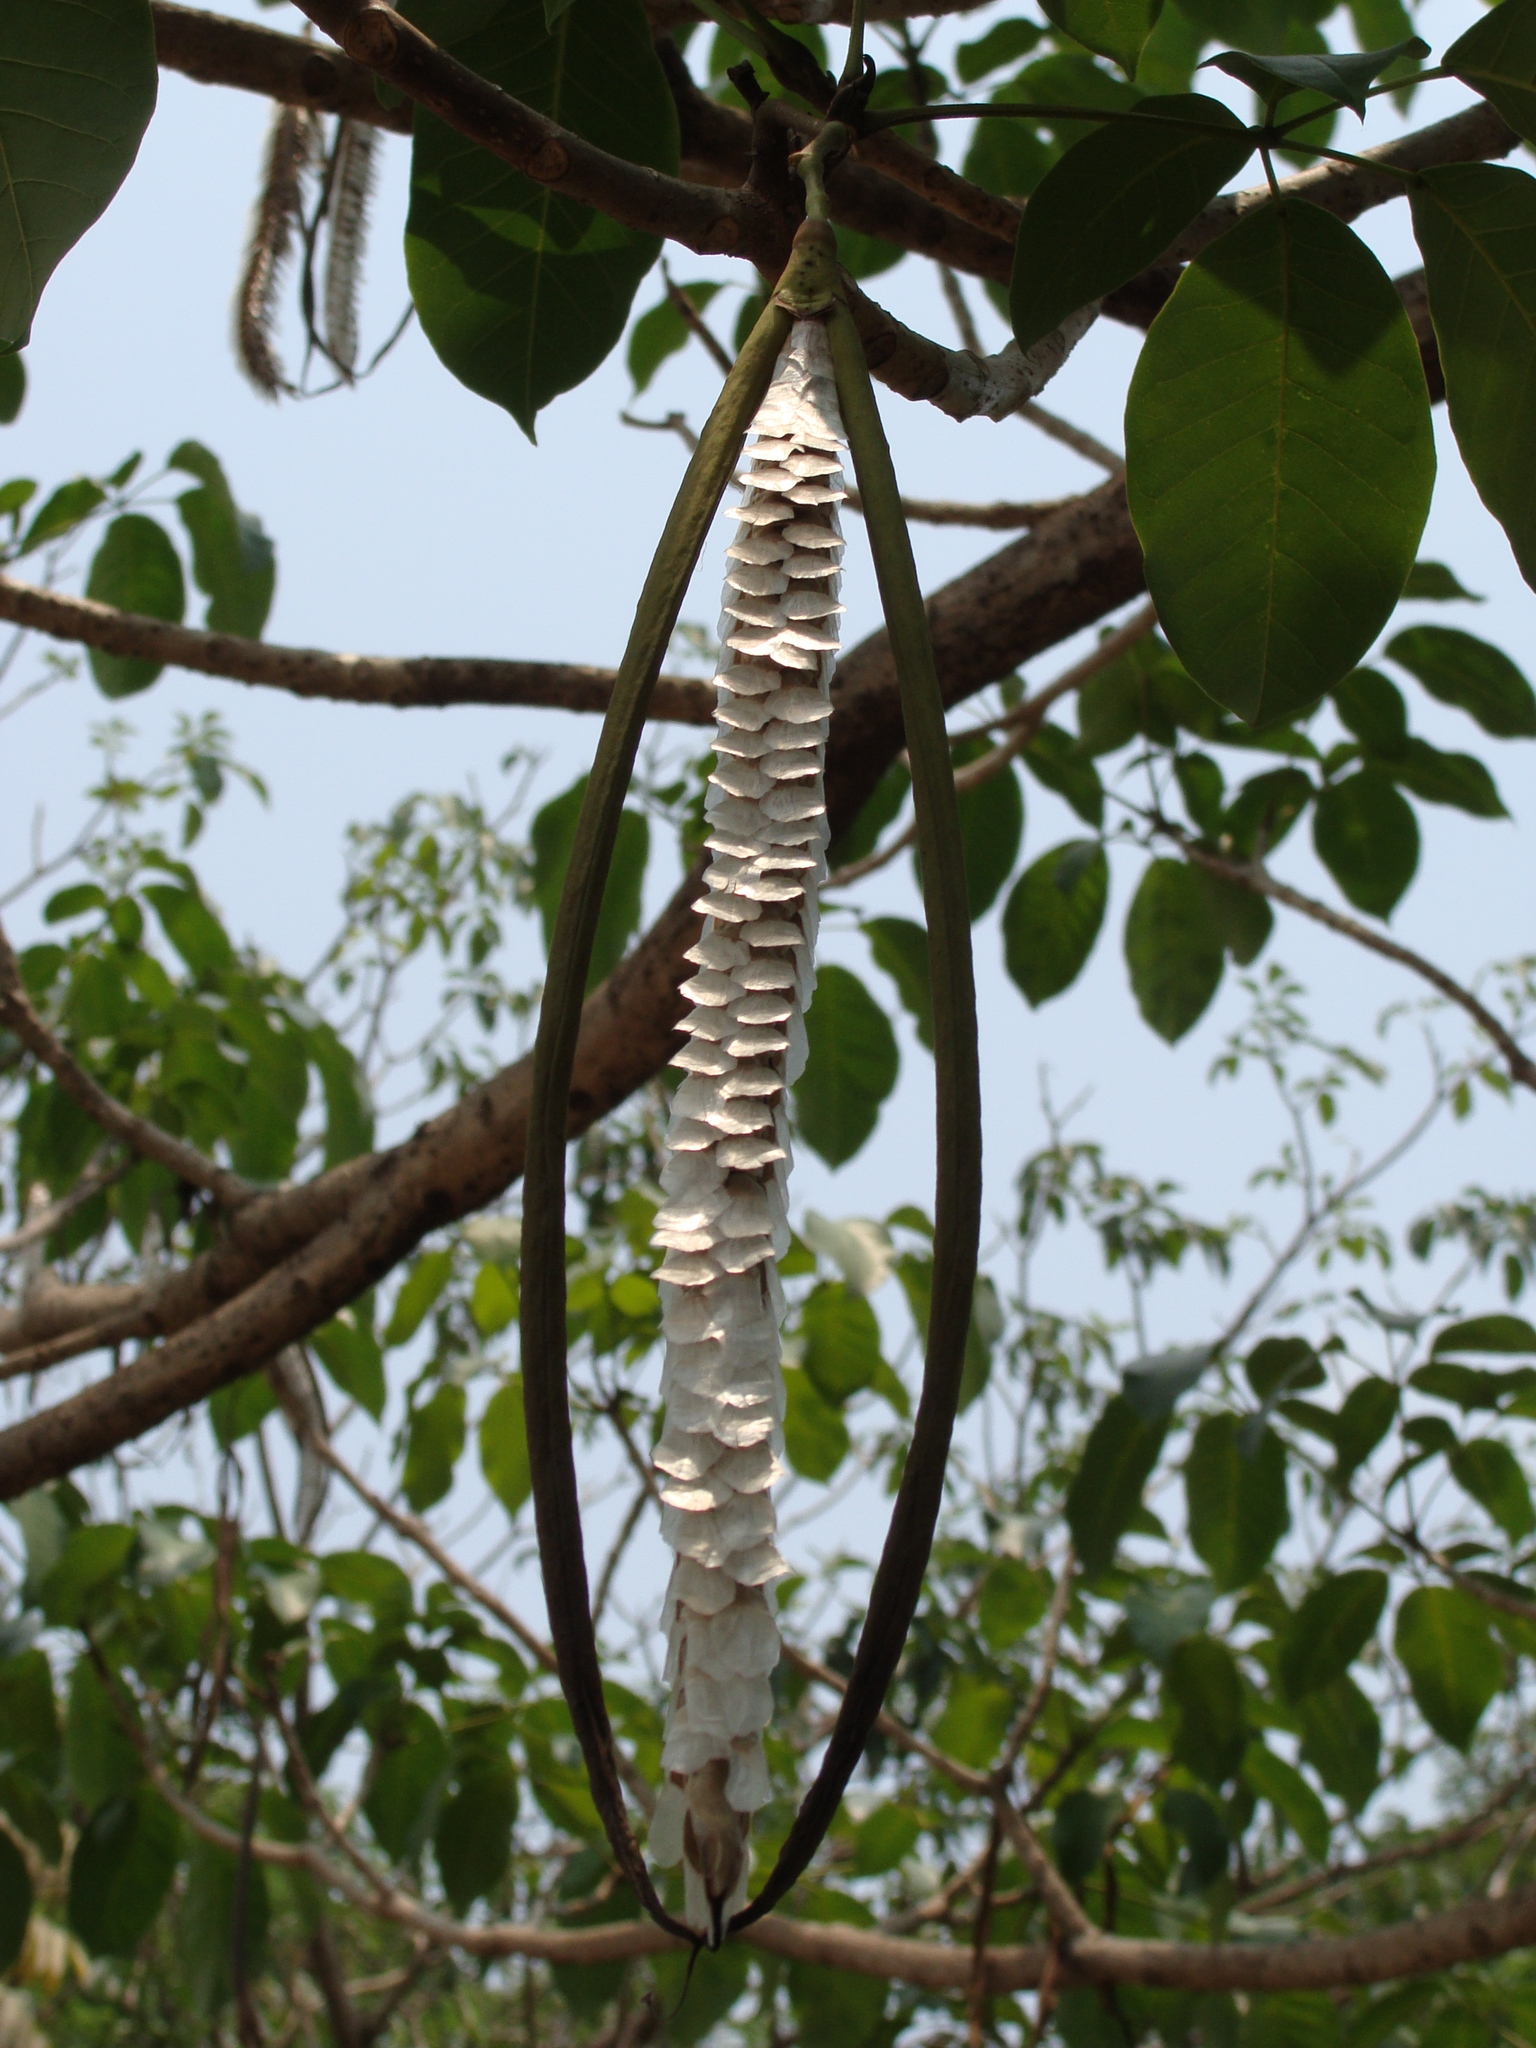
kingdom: Plantae
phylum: Tracheophyta
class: Magnoliopsida
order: Lamiales
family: Bignoniaceae
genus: Tabebuia
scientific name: Tabebuia rosea
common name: Pink poui
